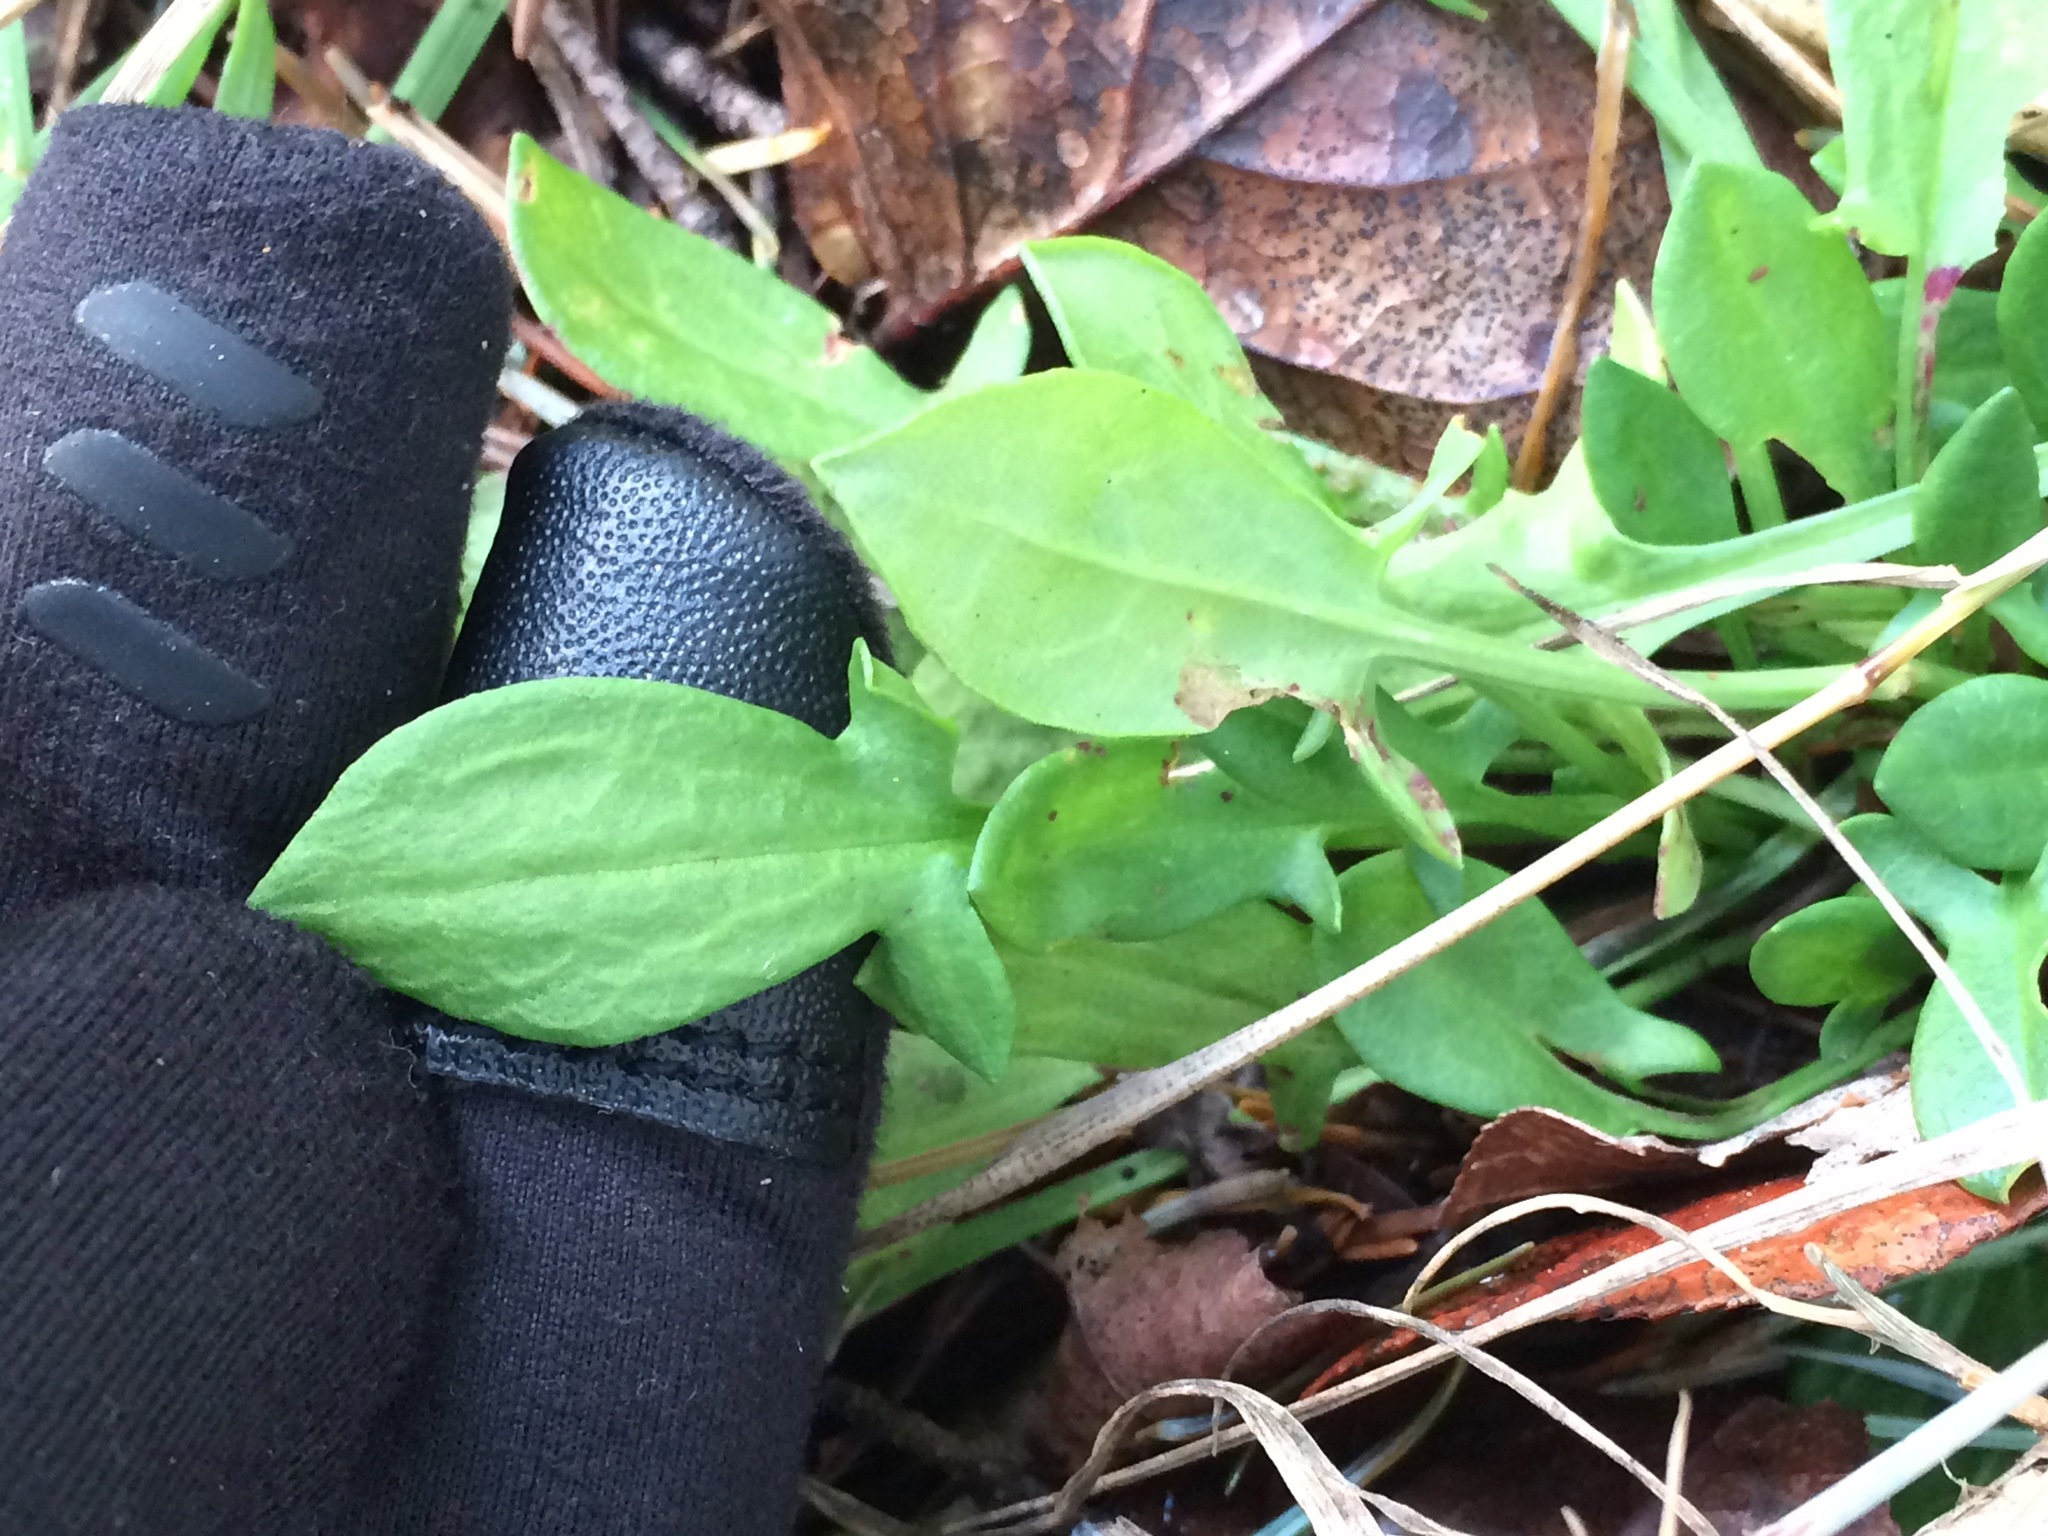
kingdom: Plantae
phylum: Tracheophyta
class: Magnoliopsida
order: Caryophyllales
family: Polygonaceae
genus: Rumex
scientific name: Rumex acetosella
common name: Common sheep sorrel
